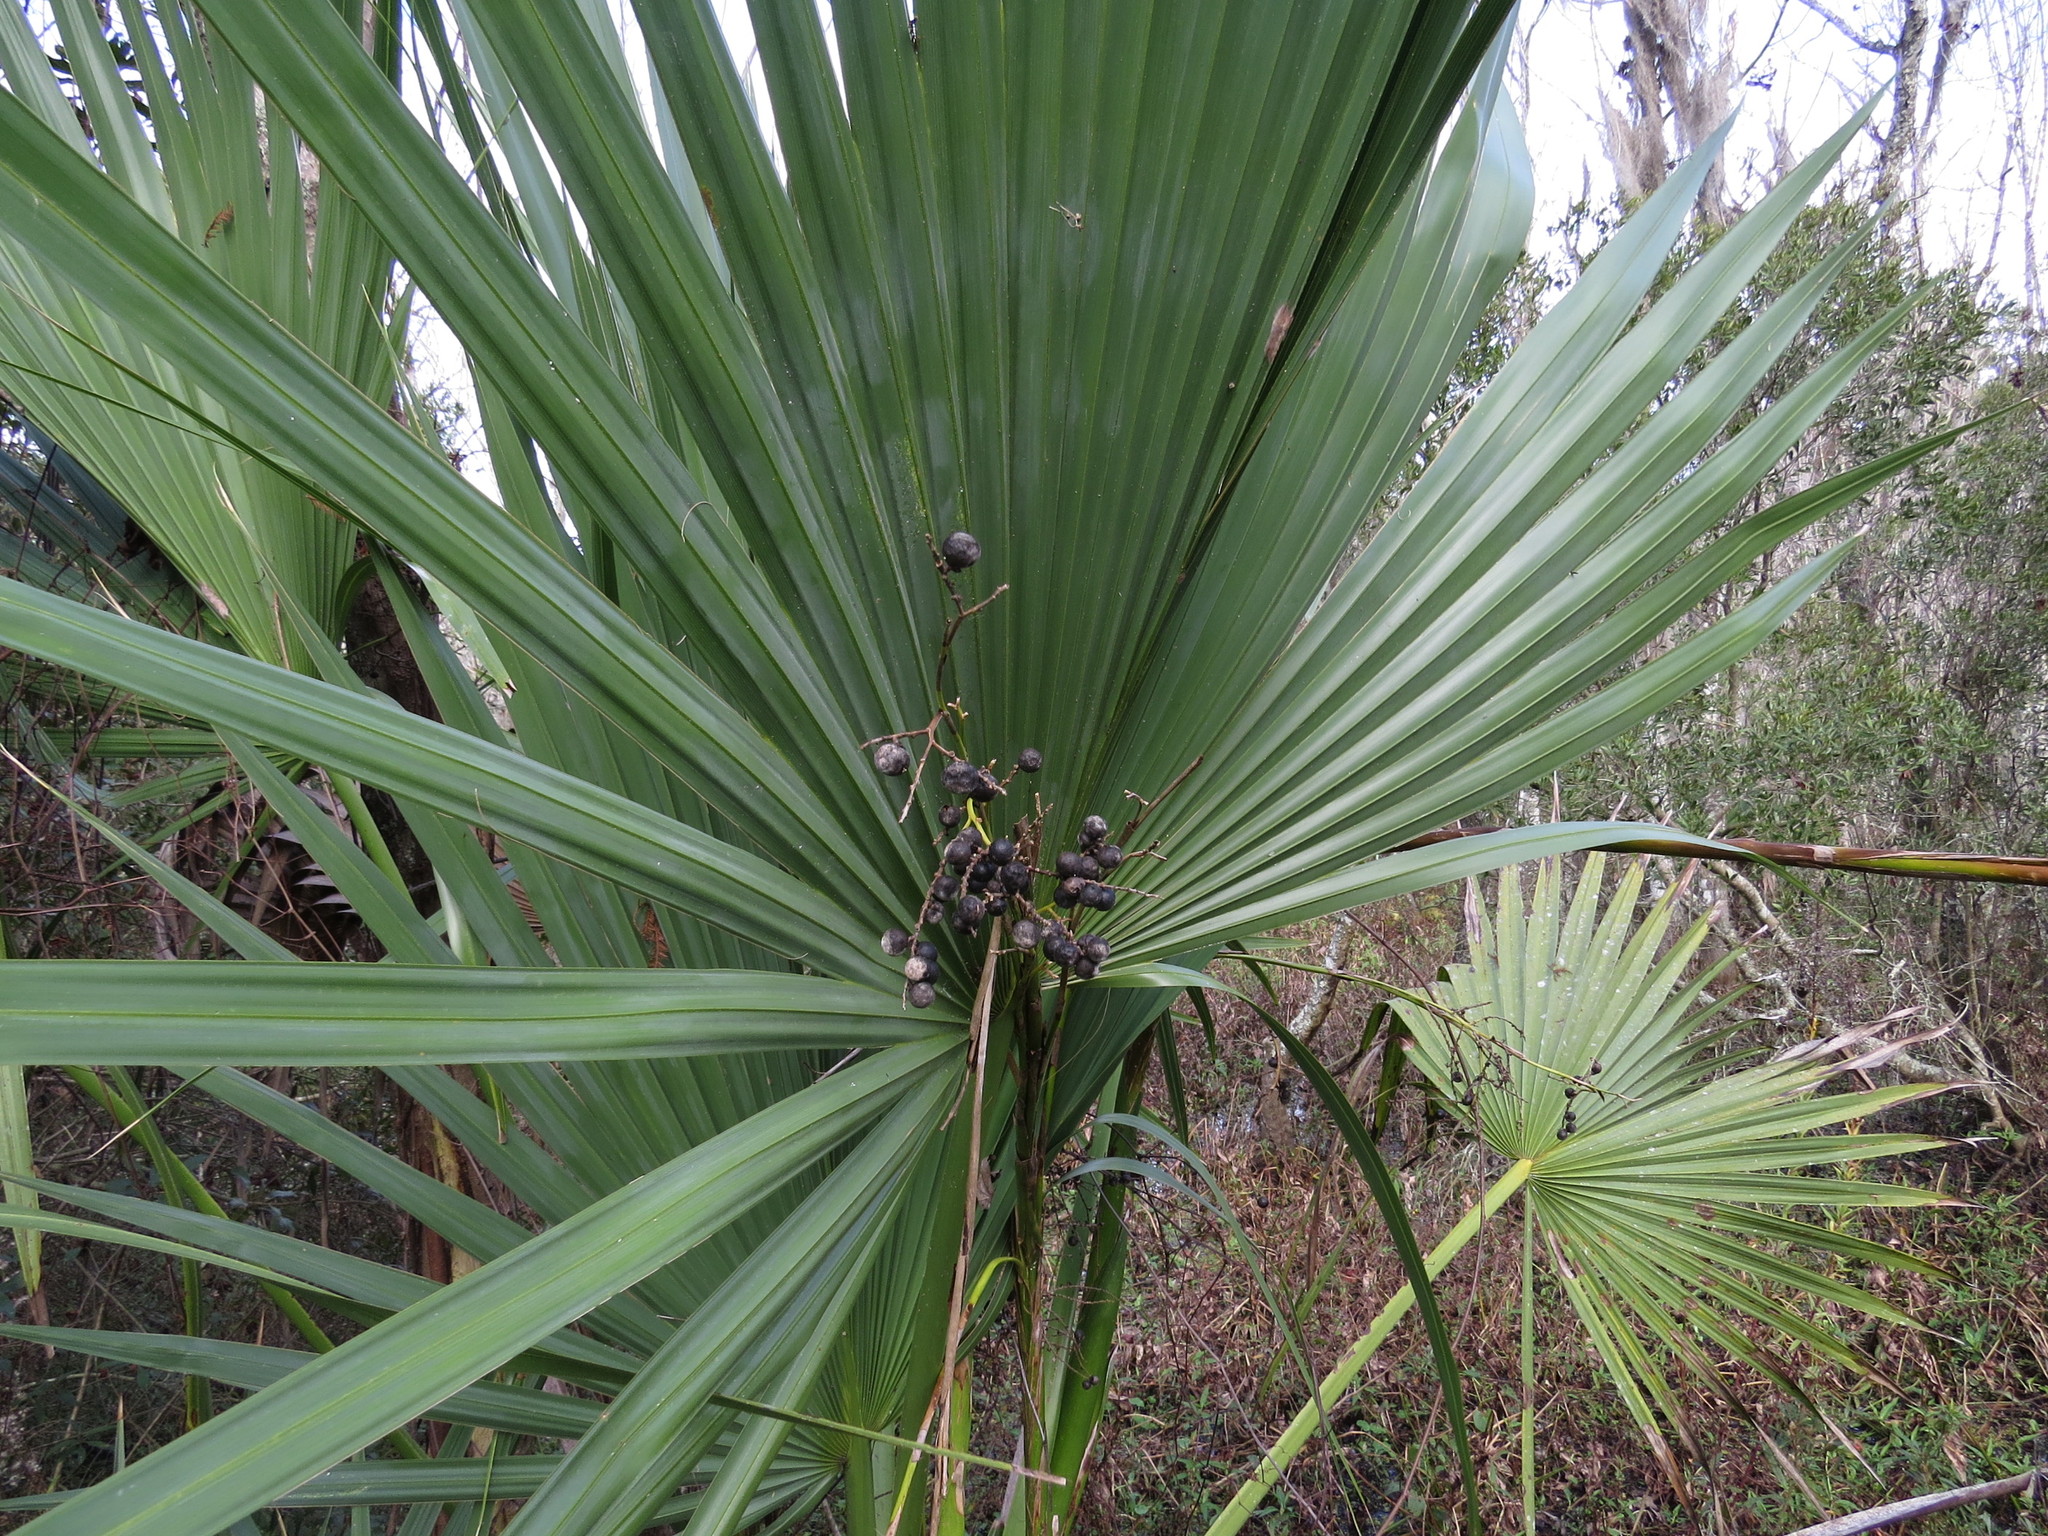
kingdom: Plantae
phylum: Tracheophyta
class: Liliopsida
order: Arecales
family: Arecaceae
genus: Sabal
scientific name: Sabal minor
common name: Dwarf palmetto
